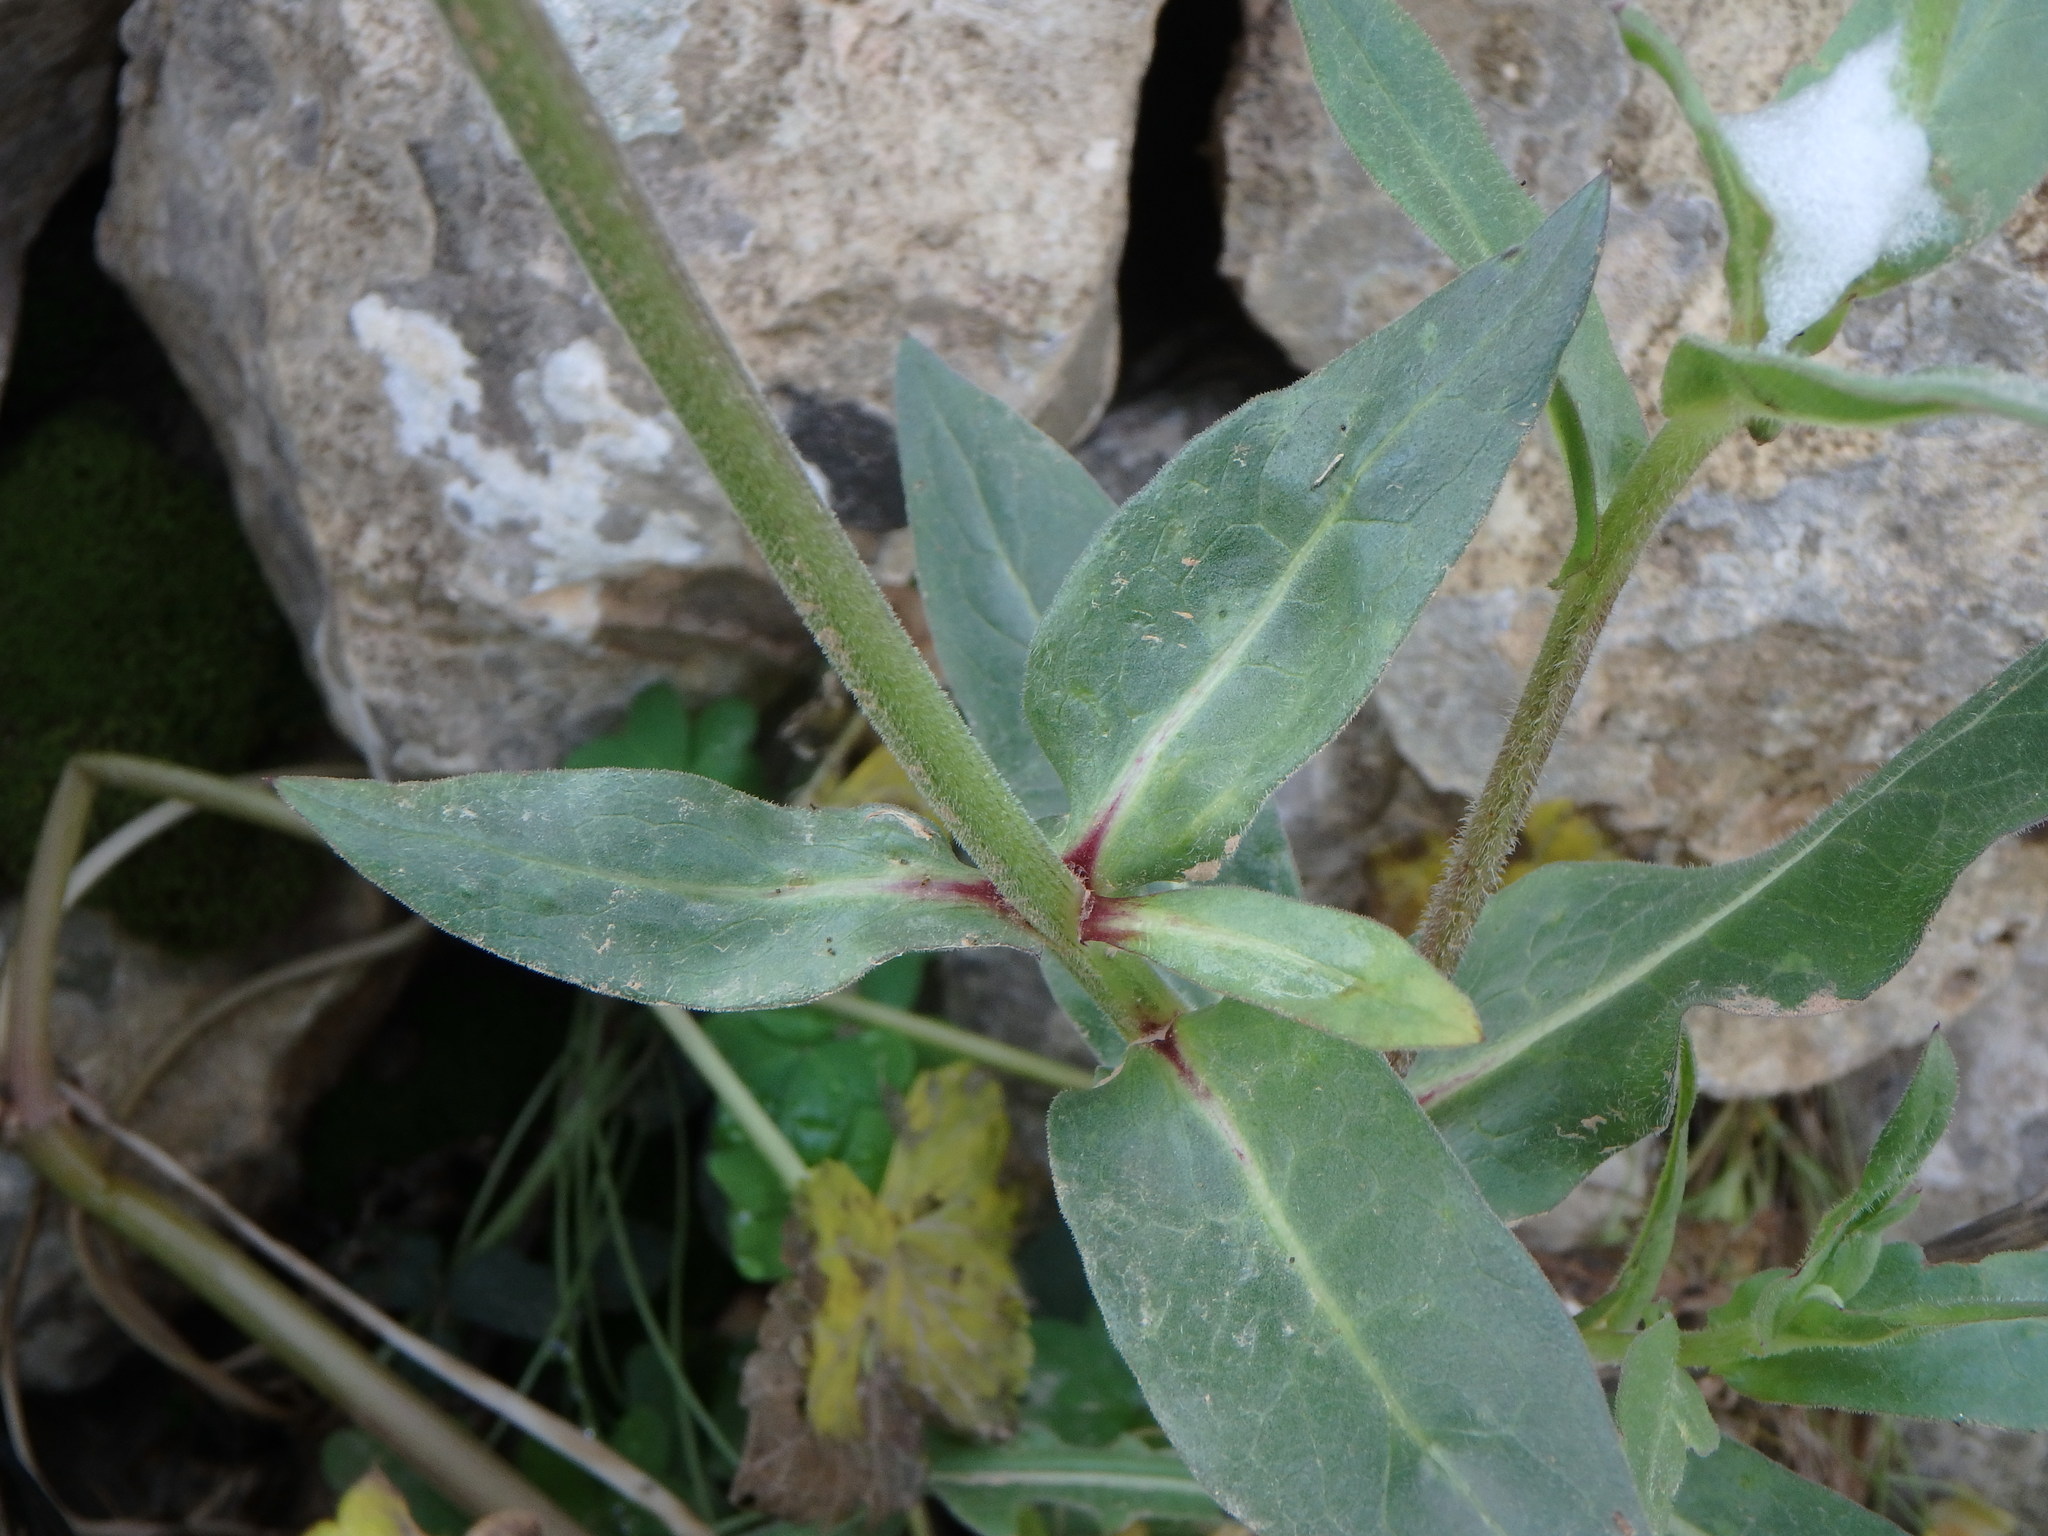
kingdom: Plantae
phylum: Tracheophyta
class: Magnoliopsida
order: Asterales
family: Asteraceae
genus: Urospermum
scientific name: Urospermum dalechampii
